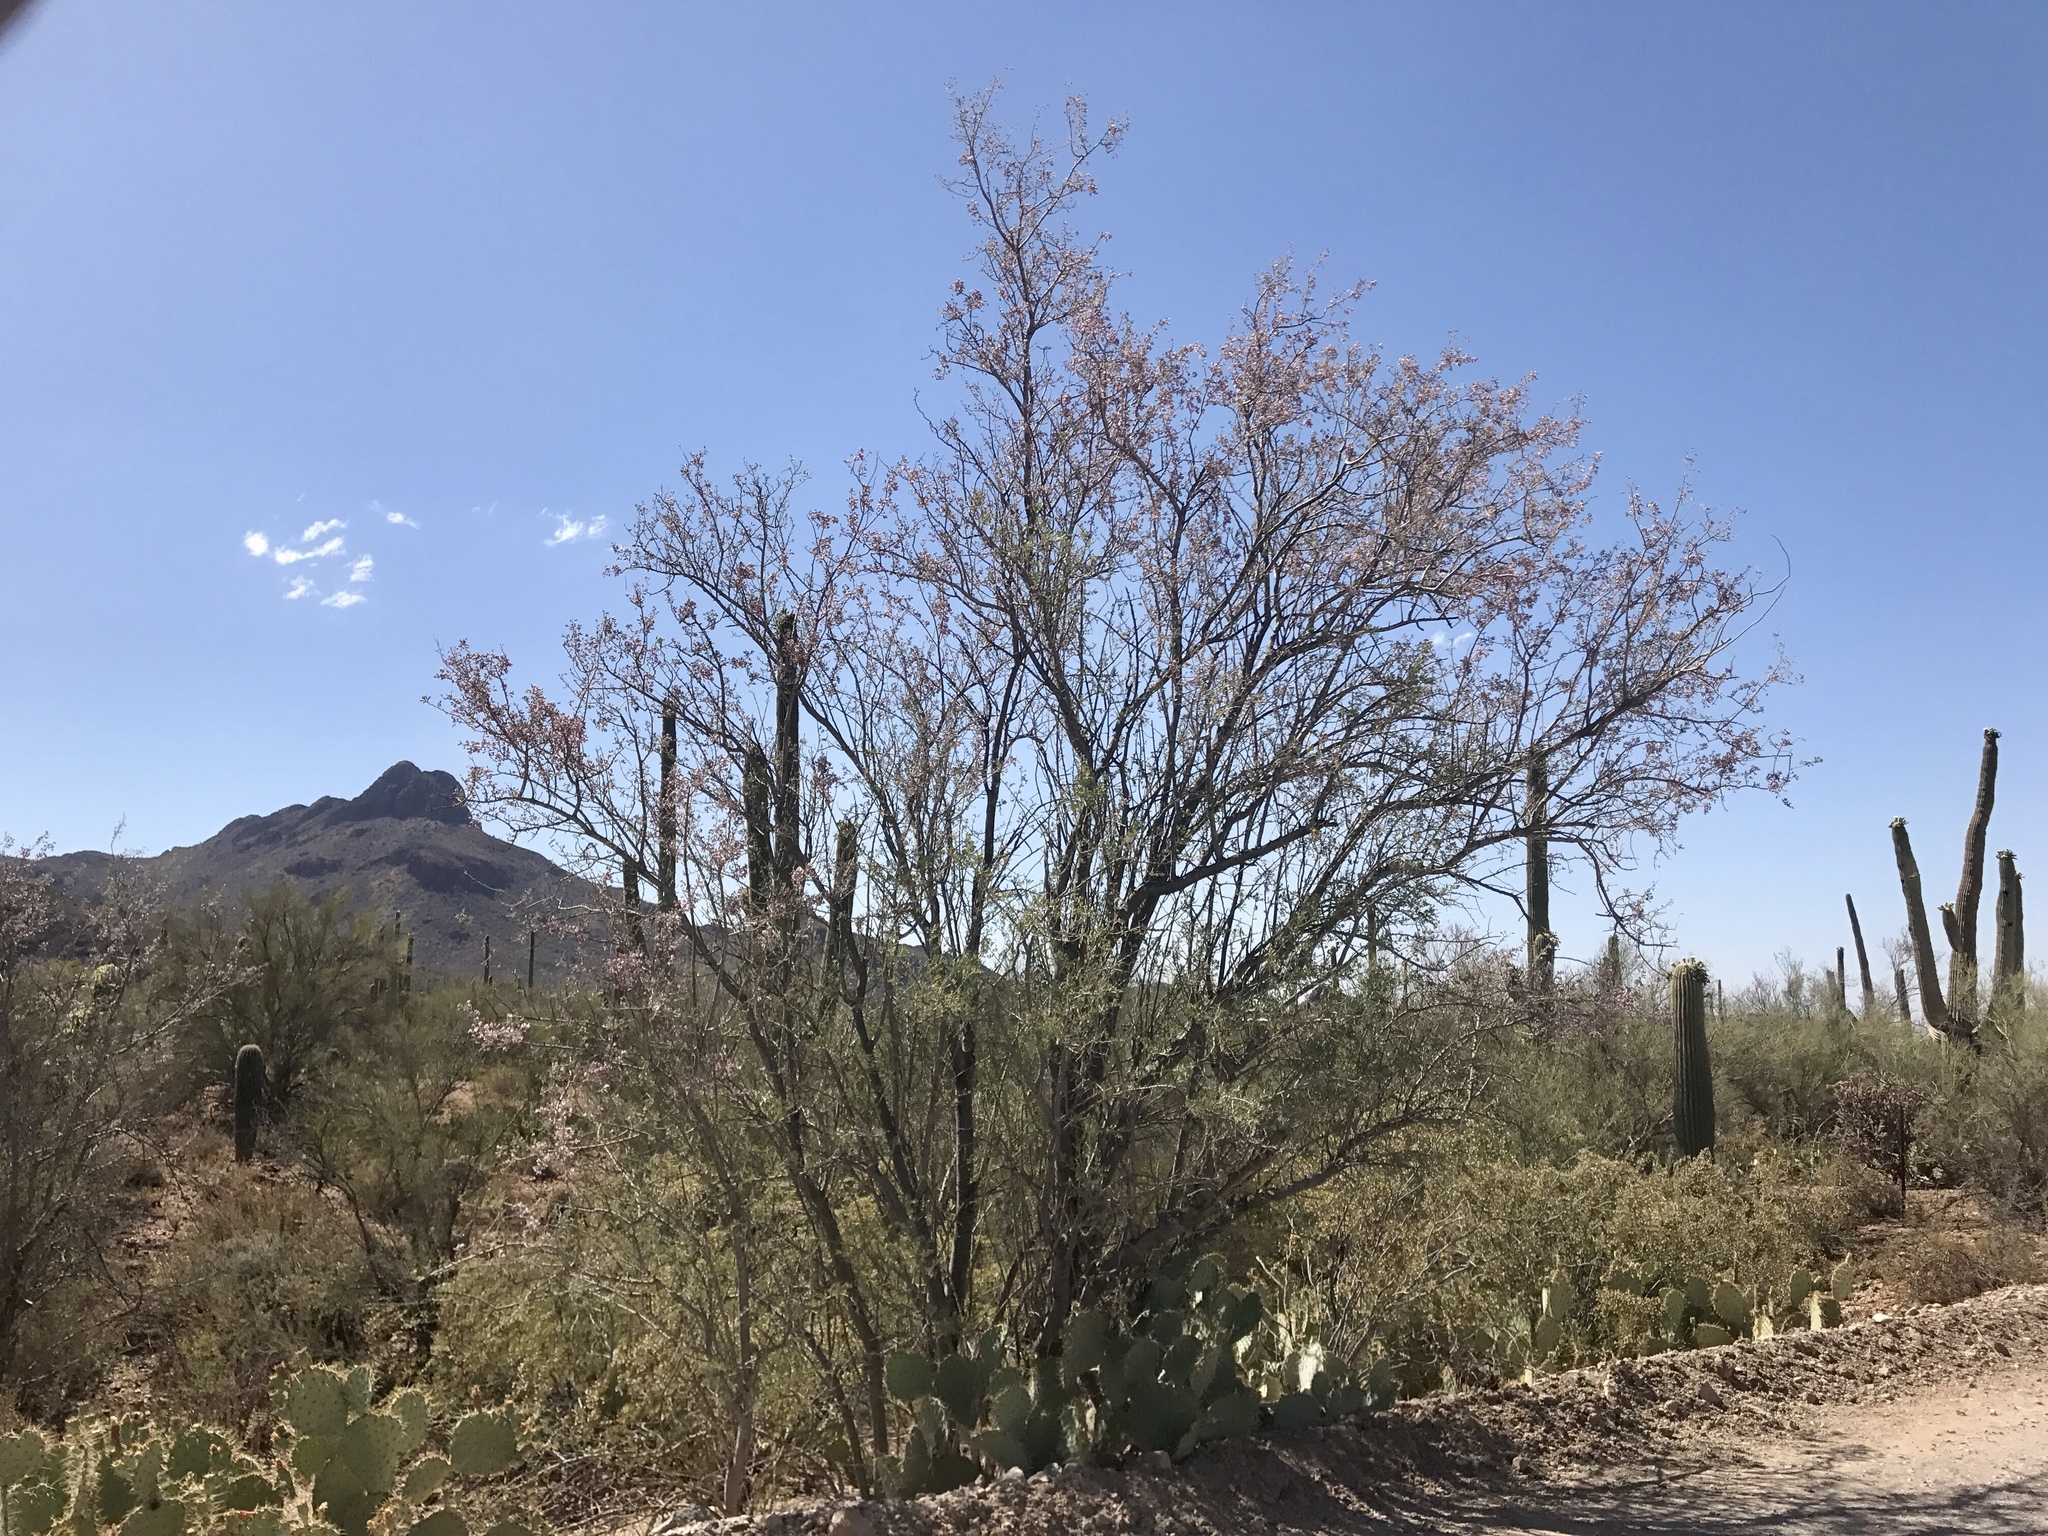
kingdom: Plantae
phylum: Tracheophyta
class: Magnoliopsida
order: Fabales
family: Fabaceae
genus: Olneya
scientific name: Olneya tesota
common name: Desert ironwood
